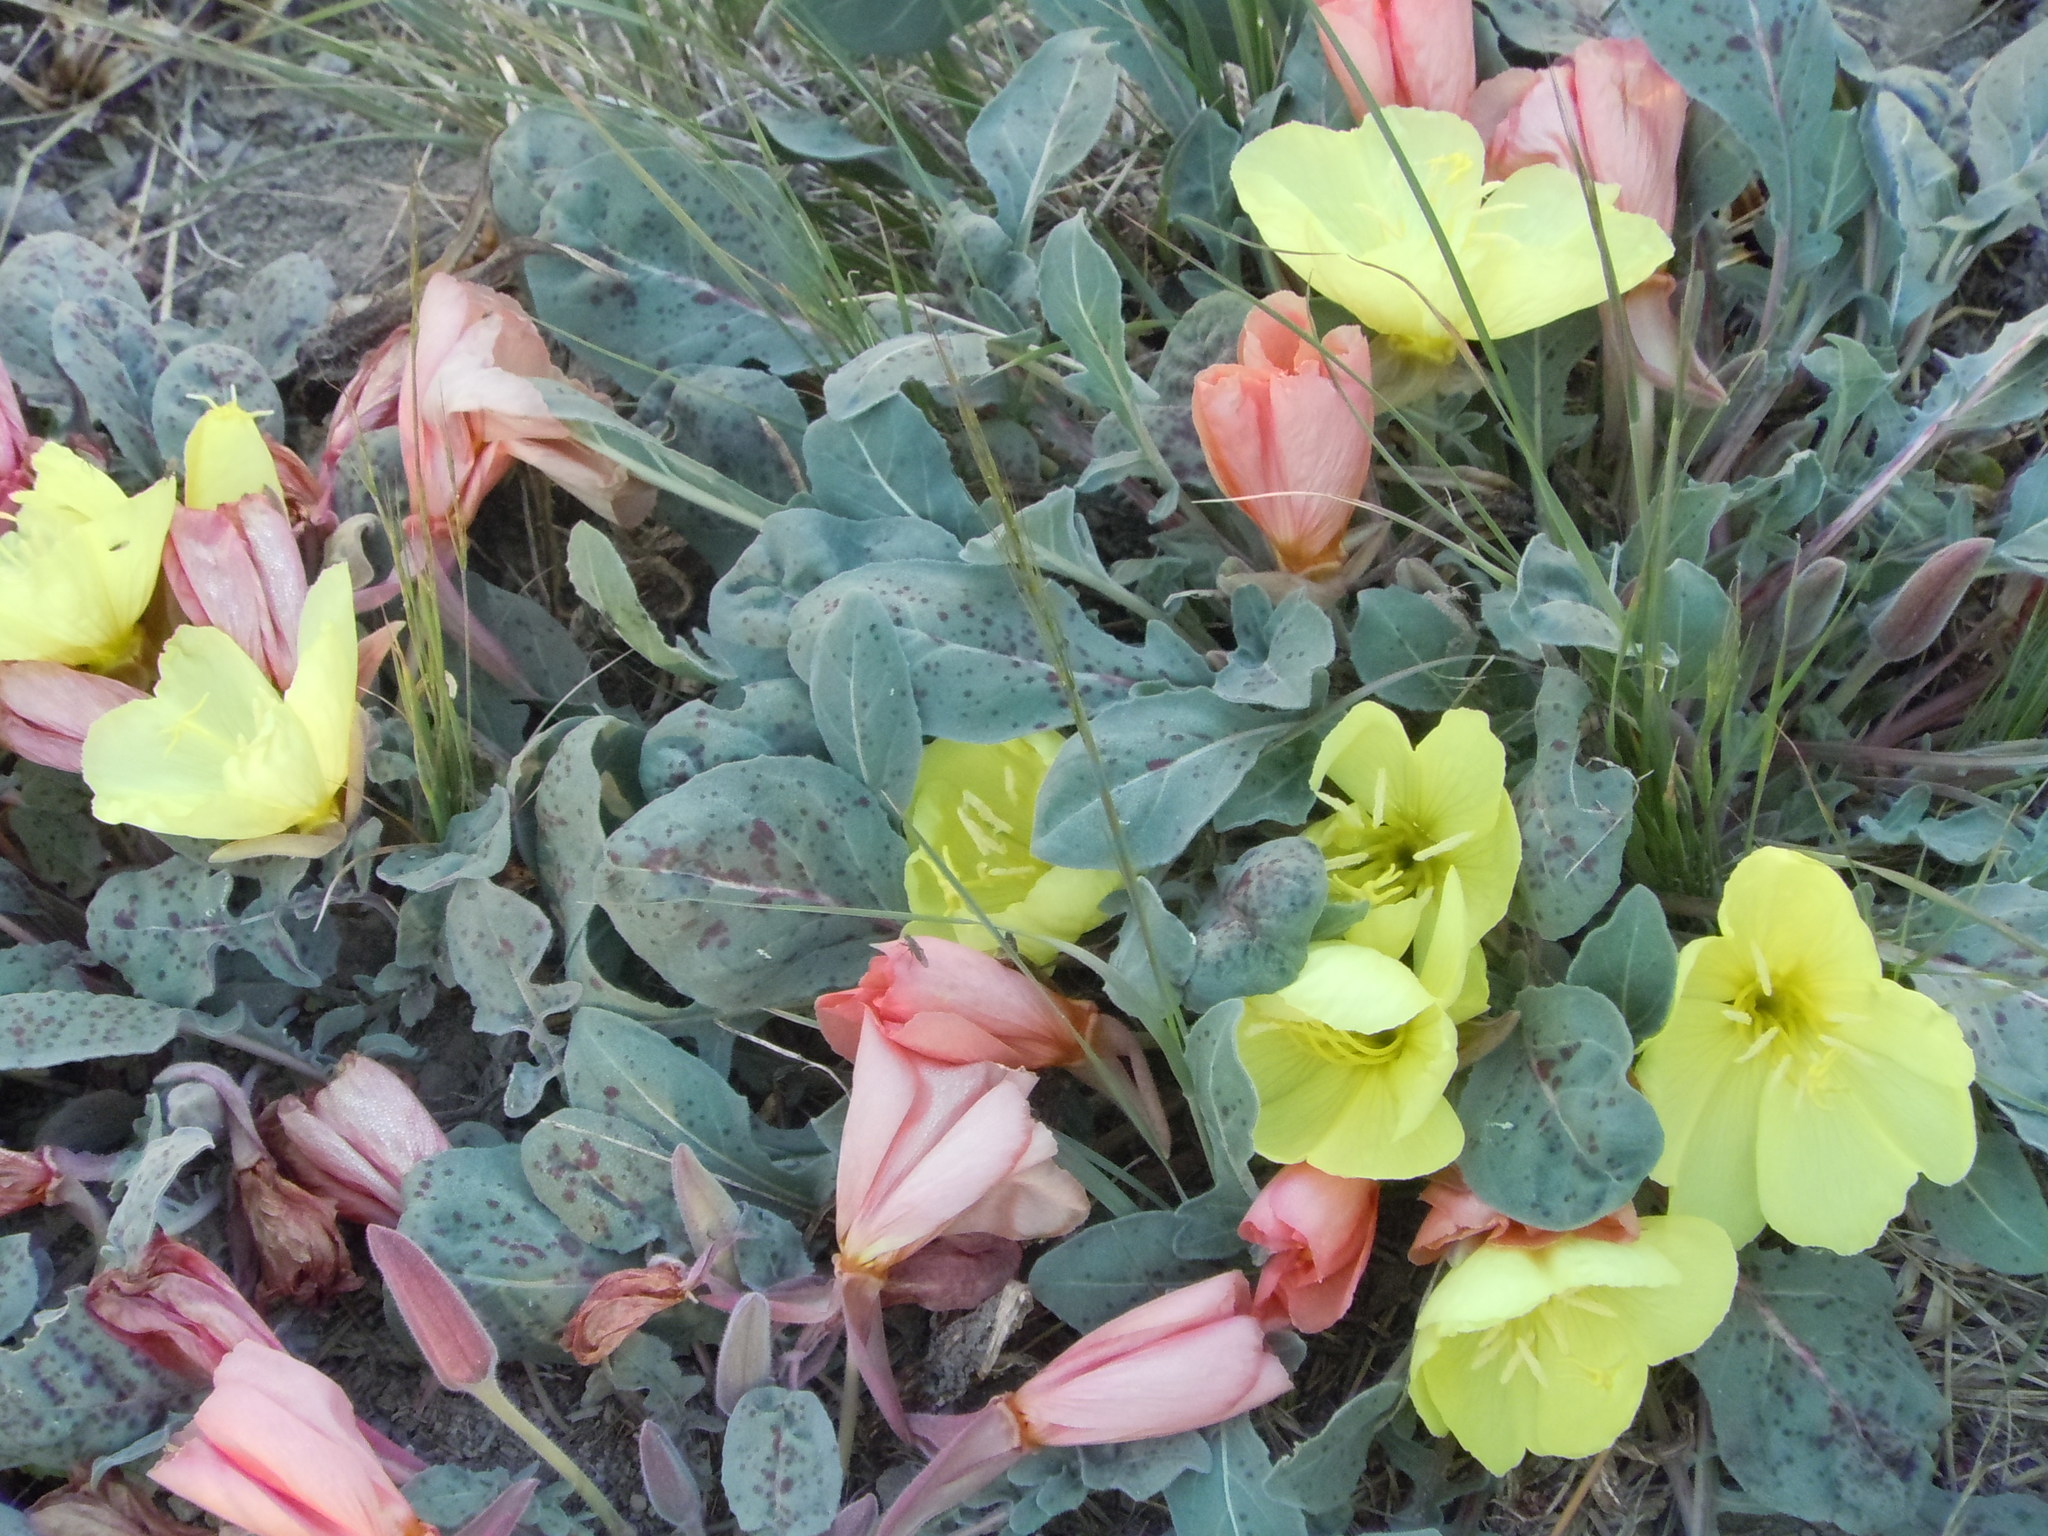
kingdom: Plantae
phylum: Tracheophyta
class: Magnoliopsida
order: Myrtales
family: Onagraceae
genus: Oenothera
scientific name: Oenothera xylocarpa
